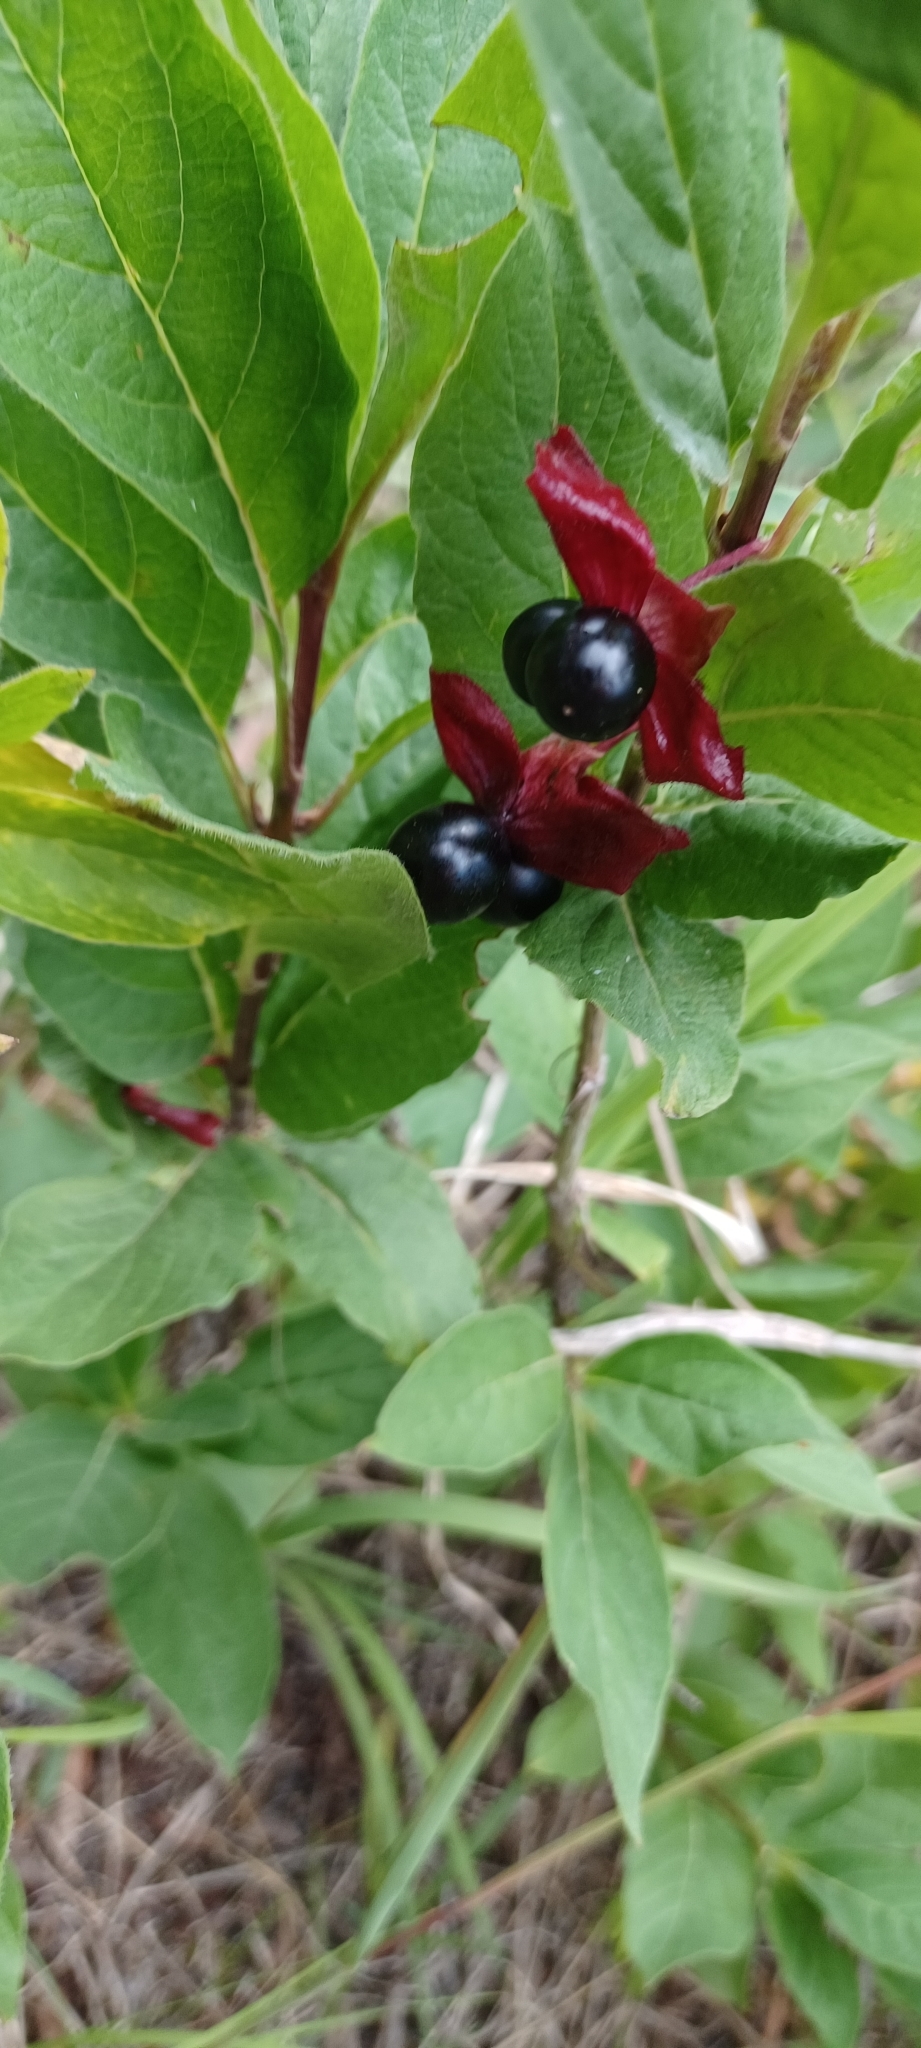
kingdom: Plantae
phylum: Tracheophyta
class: Magnoliopsida
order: Dipsacales
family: Caprifoliaceae
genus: Lonicera
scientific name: Lonicera involucrata
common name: Californian honeysuckle
